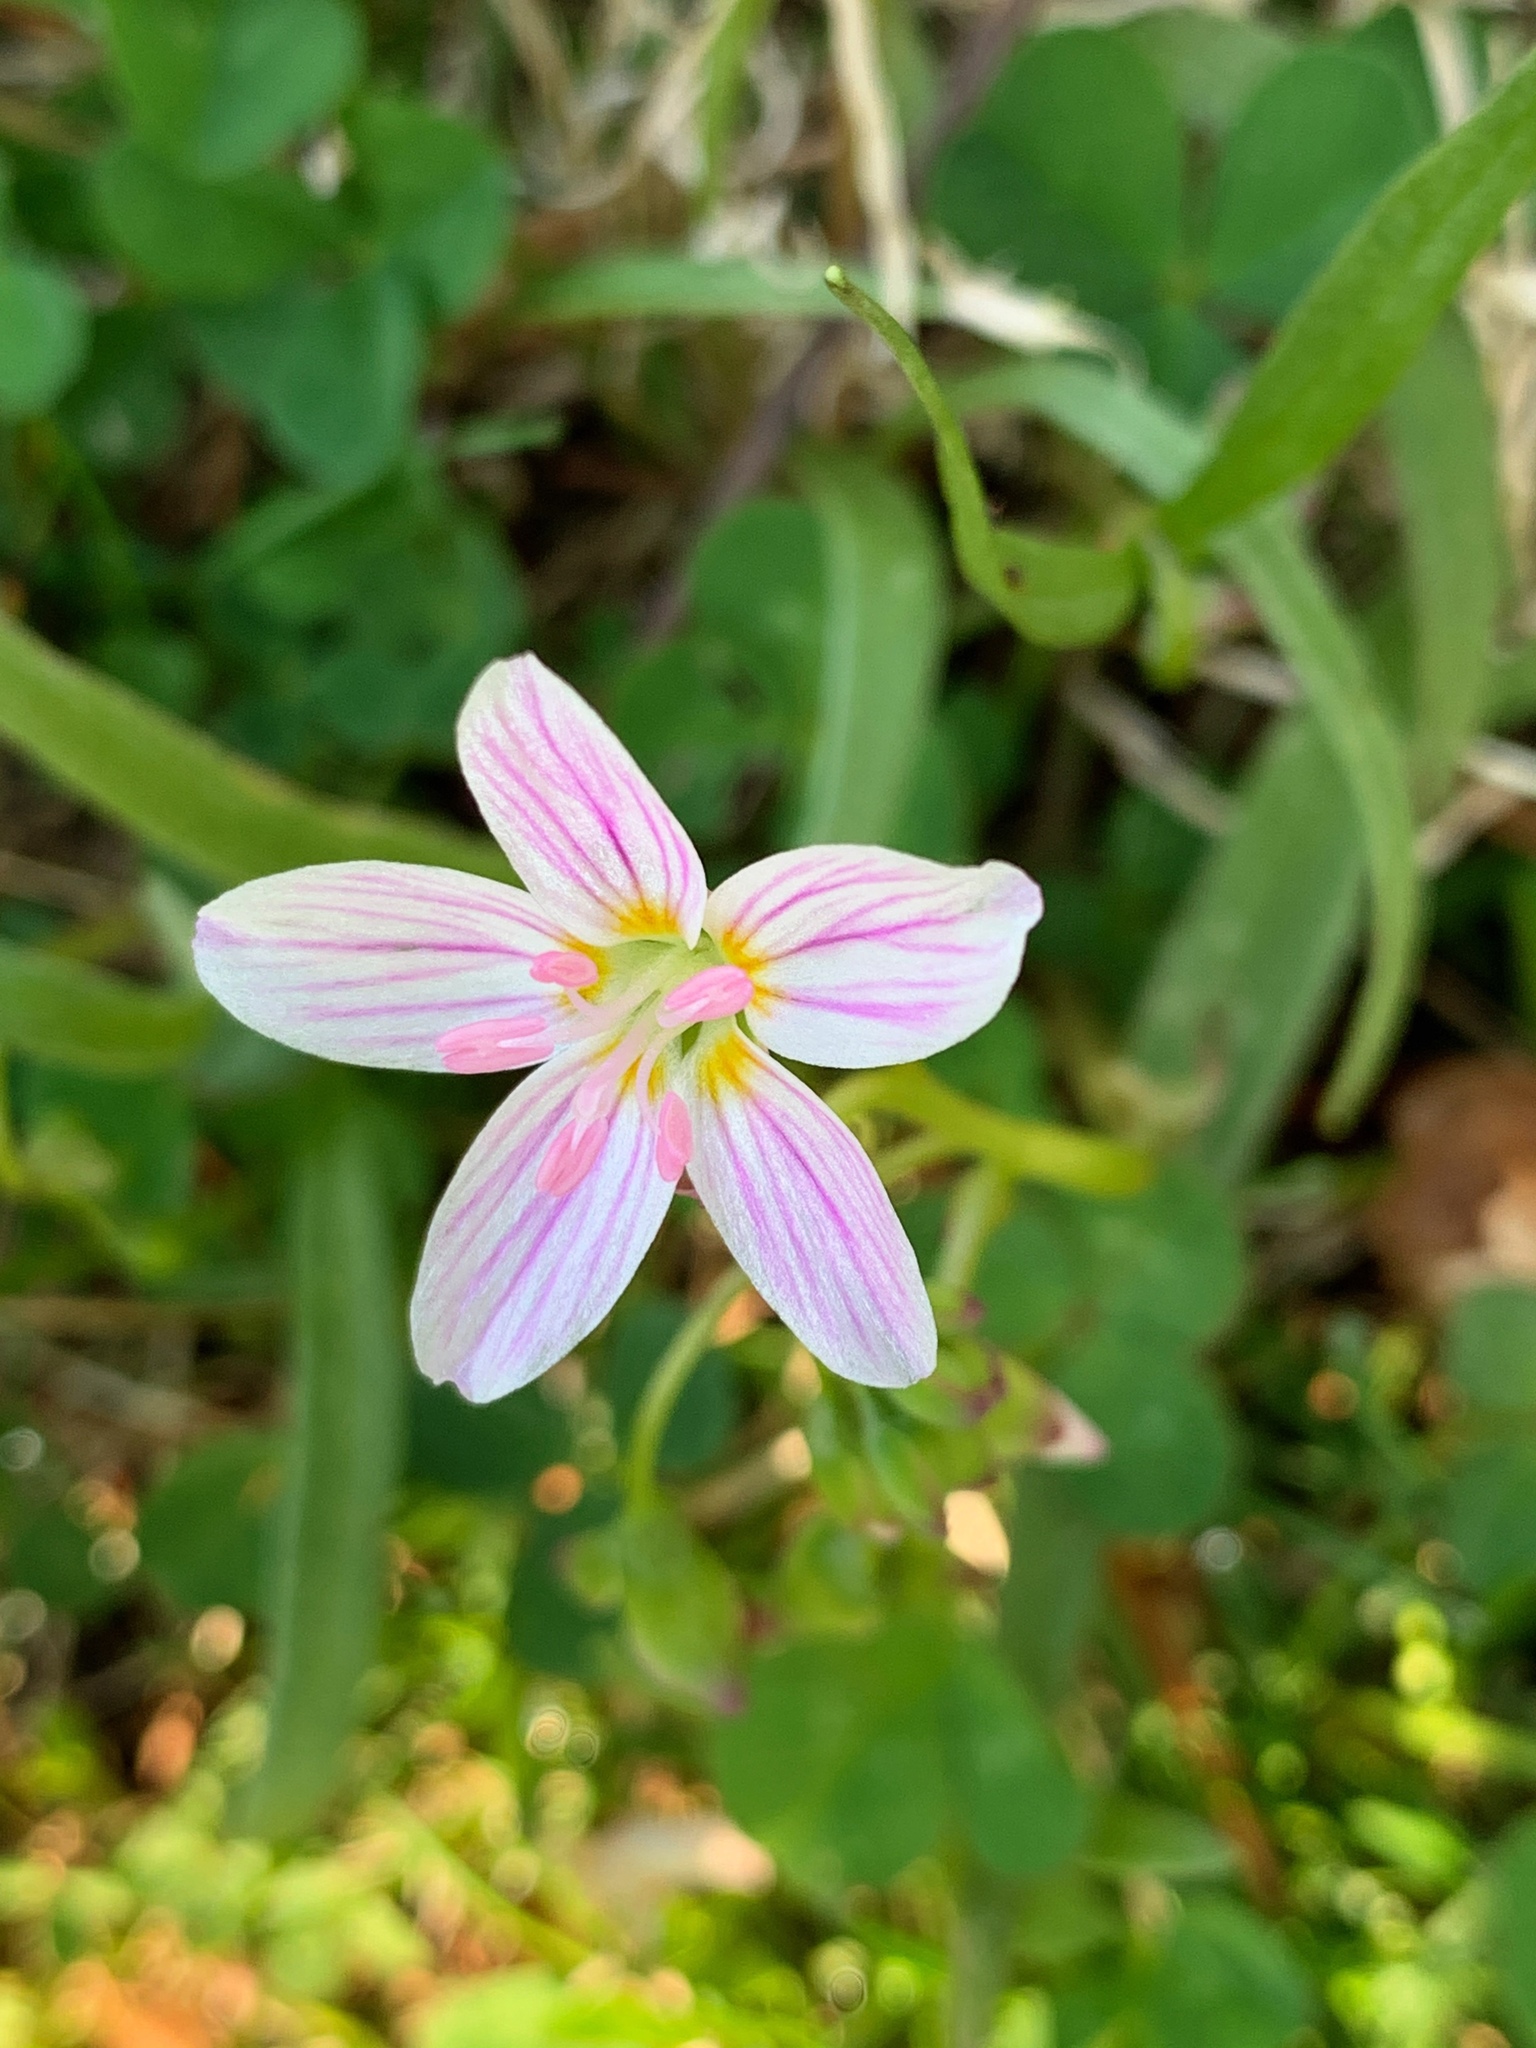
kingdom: Plantae
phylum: Tracheophyta
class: Magnoliopsida
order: Caryophyllales
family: Montiaceae
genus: Claytonia
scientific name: Claytonia virginica
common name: Virginia springbeauty
